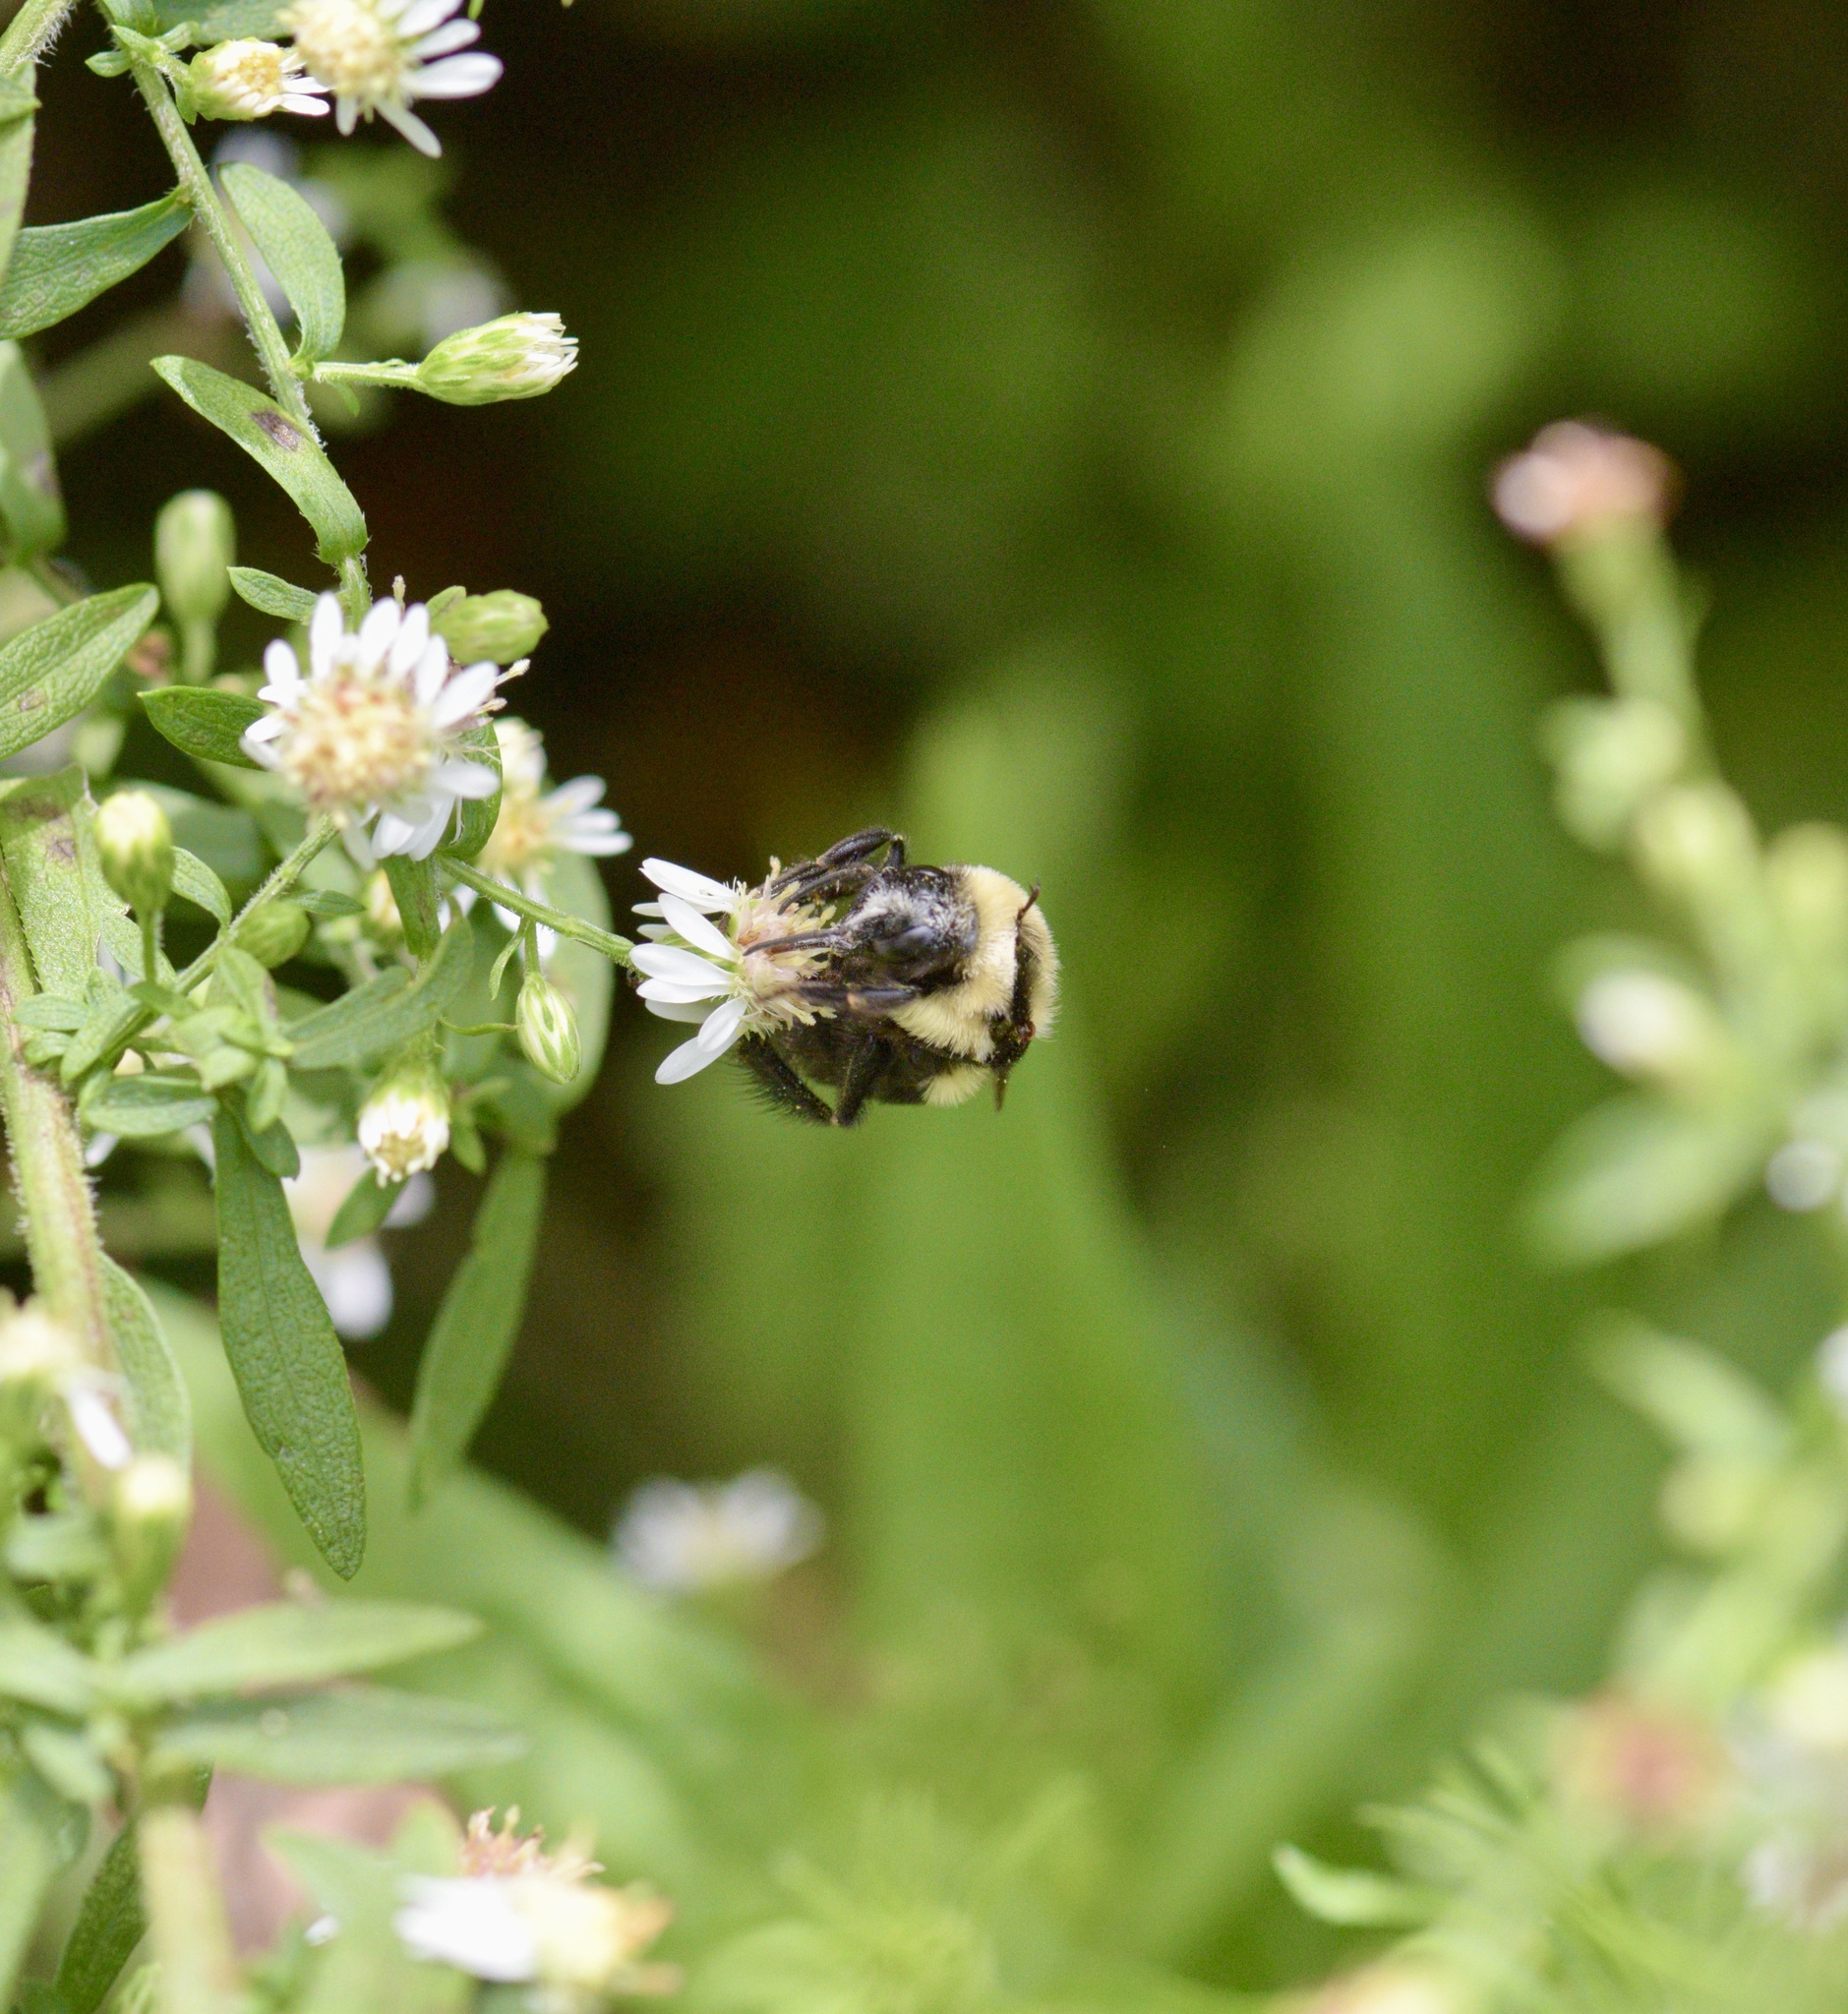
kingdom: Animalia
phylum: Arthropoda
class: Insecta
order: Hymenoptera
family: Apidae
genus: Bombus
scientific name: Bombus impatiens
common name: Common eastern bumble bee
